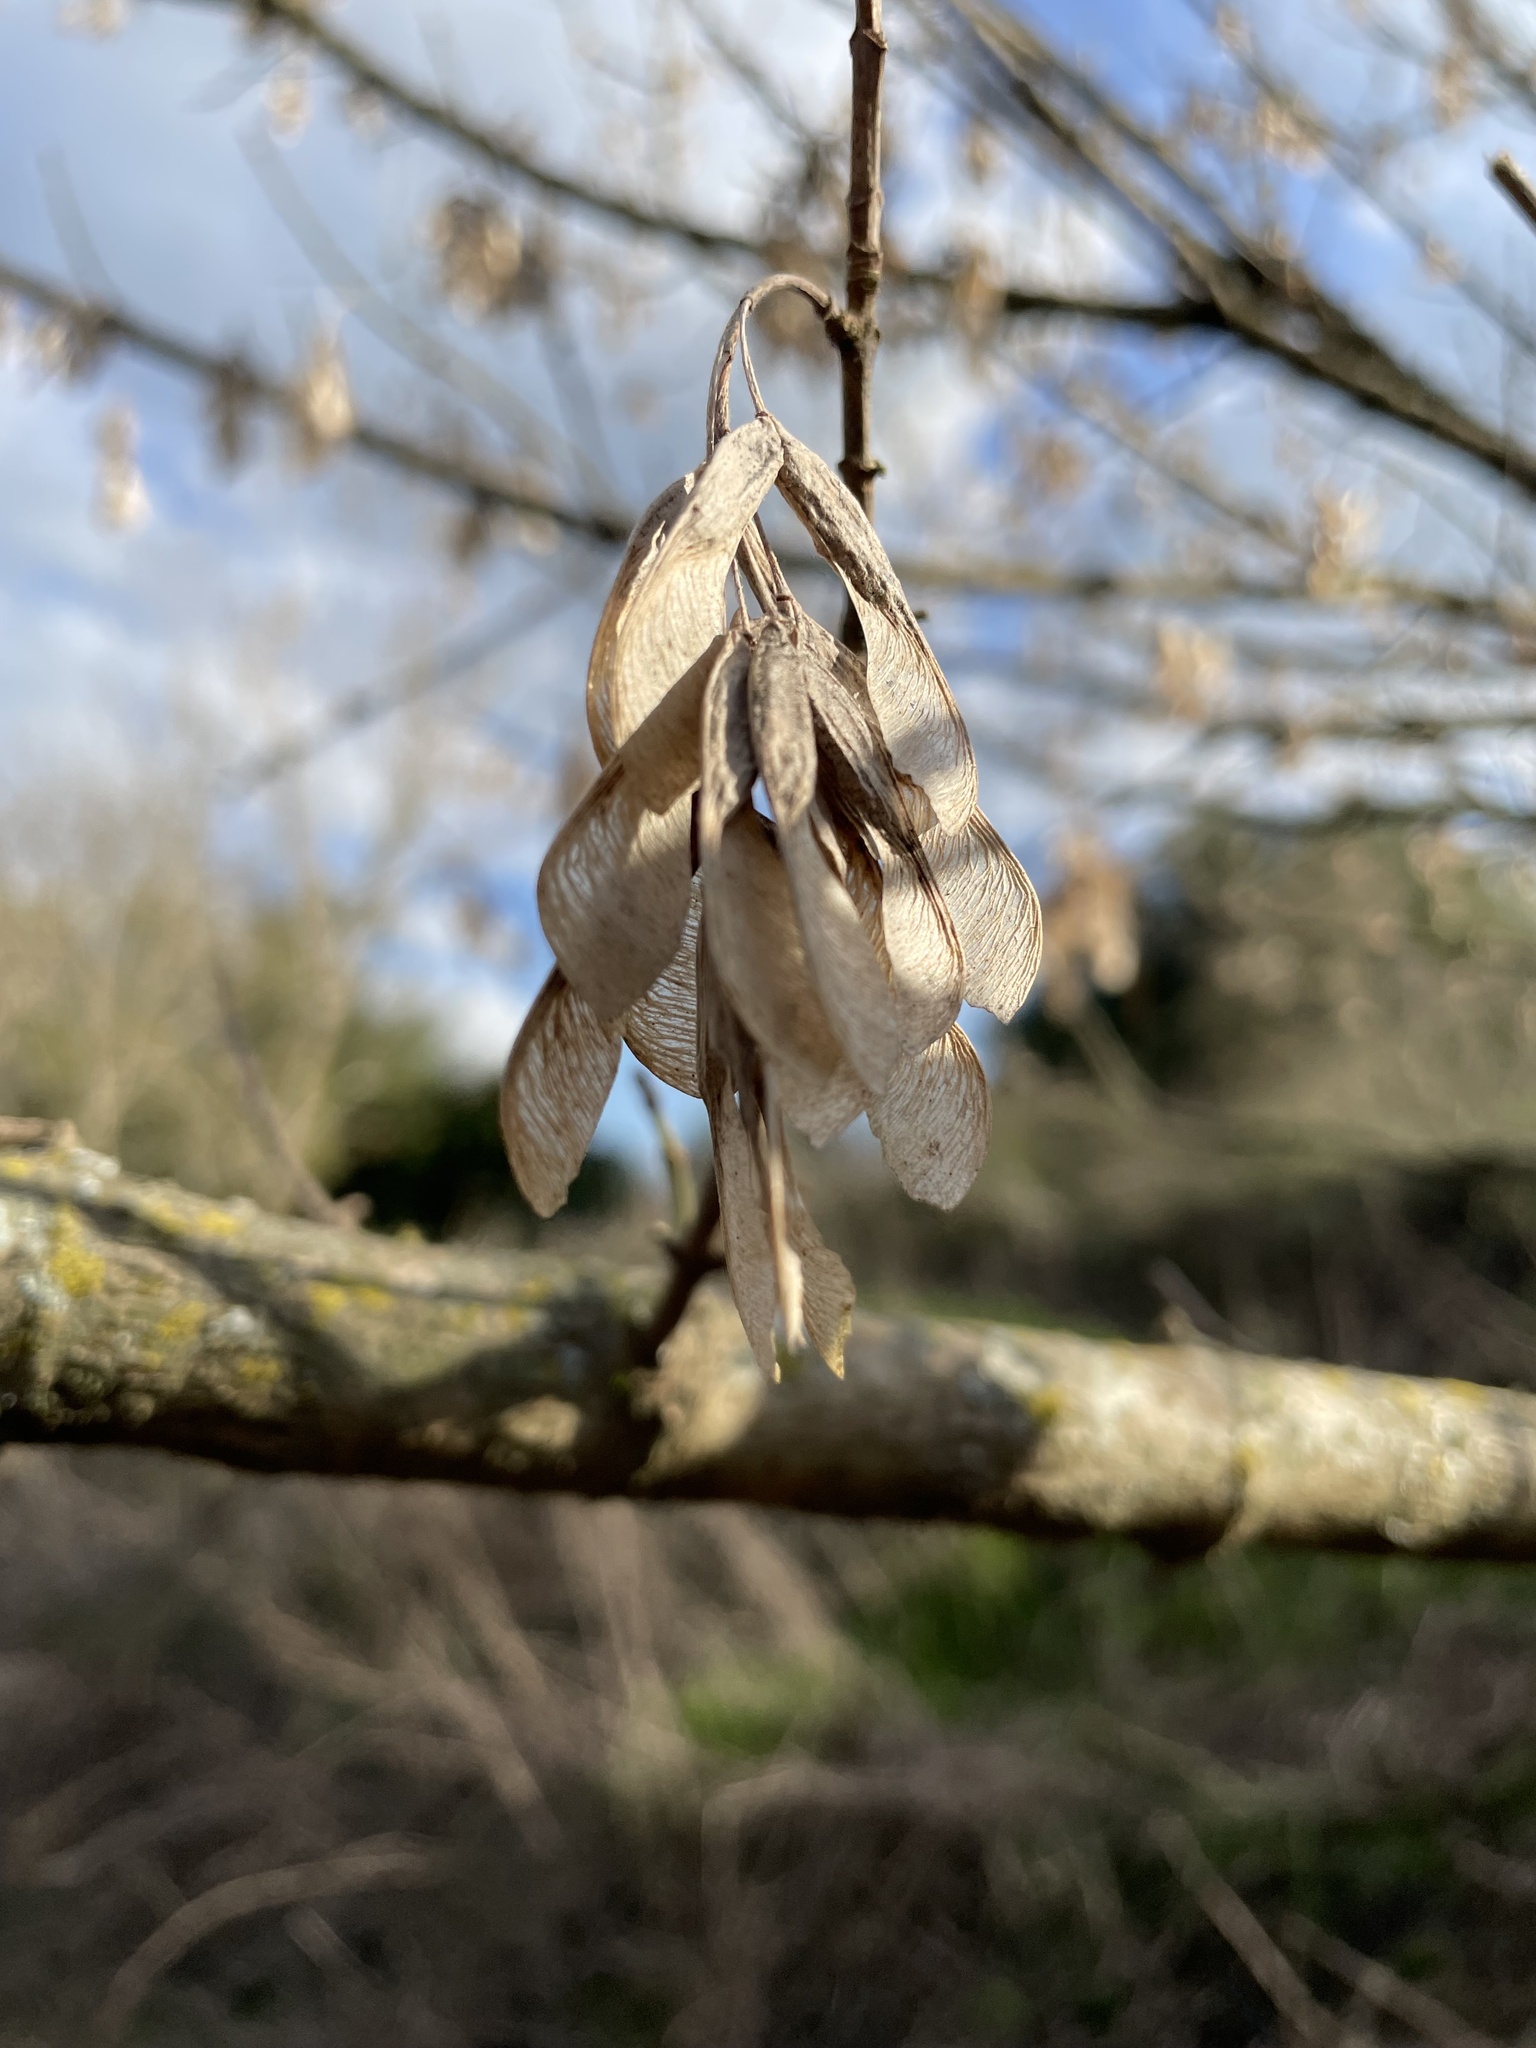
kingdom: Plantae
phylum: Tracheophyta
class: Magnoliopsida
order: Sapindales
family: Sapindaceae
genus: Acer
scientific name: Acer negundo
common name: Ashleaf maple
